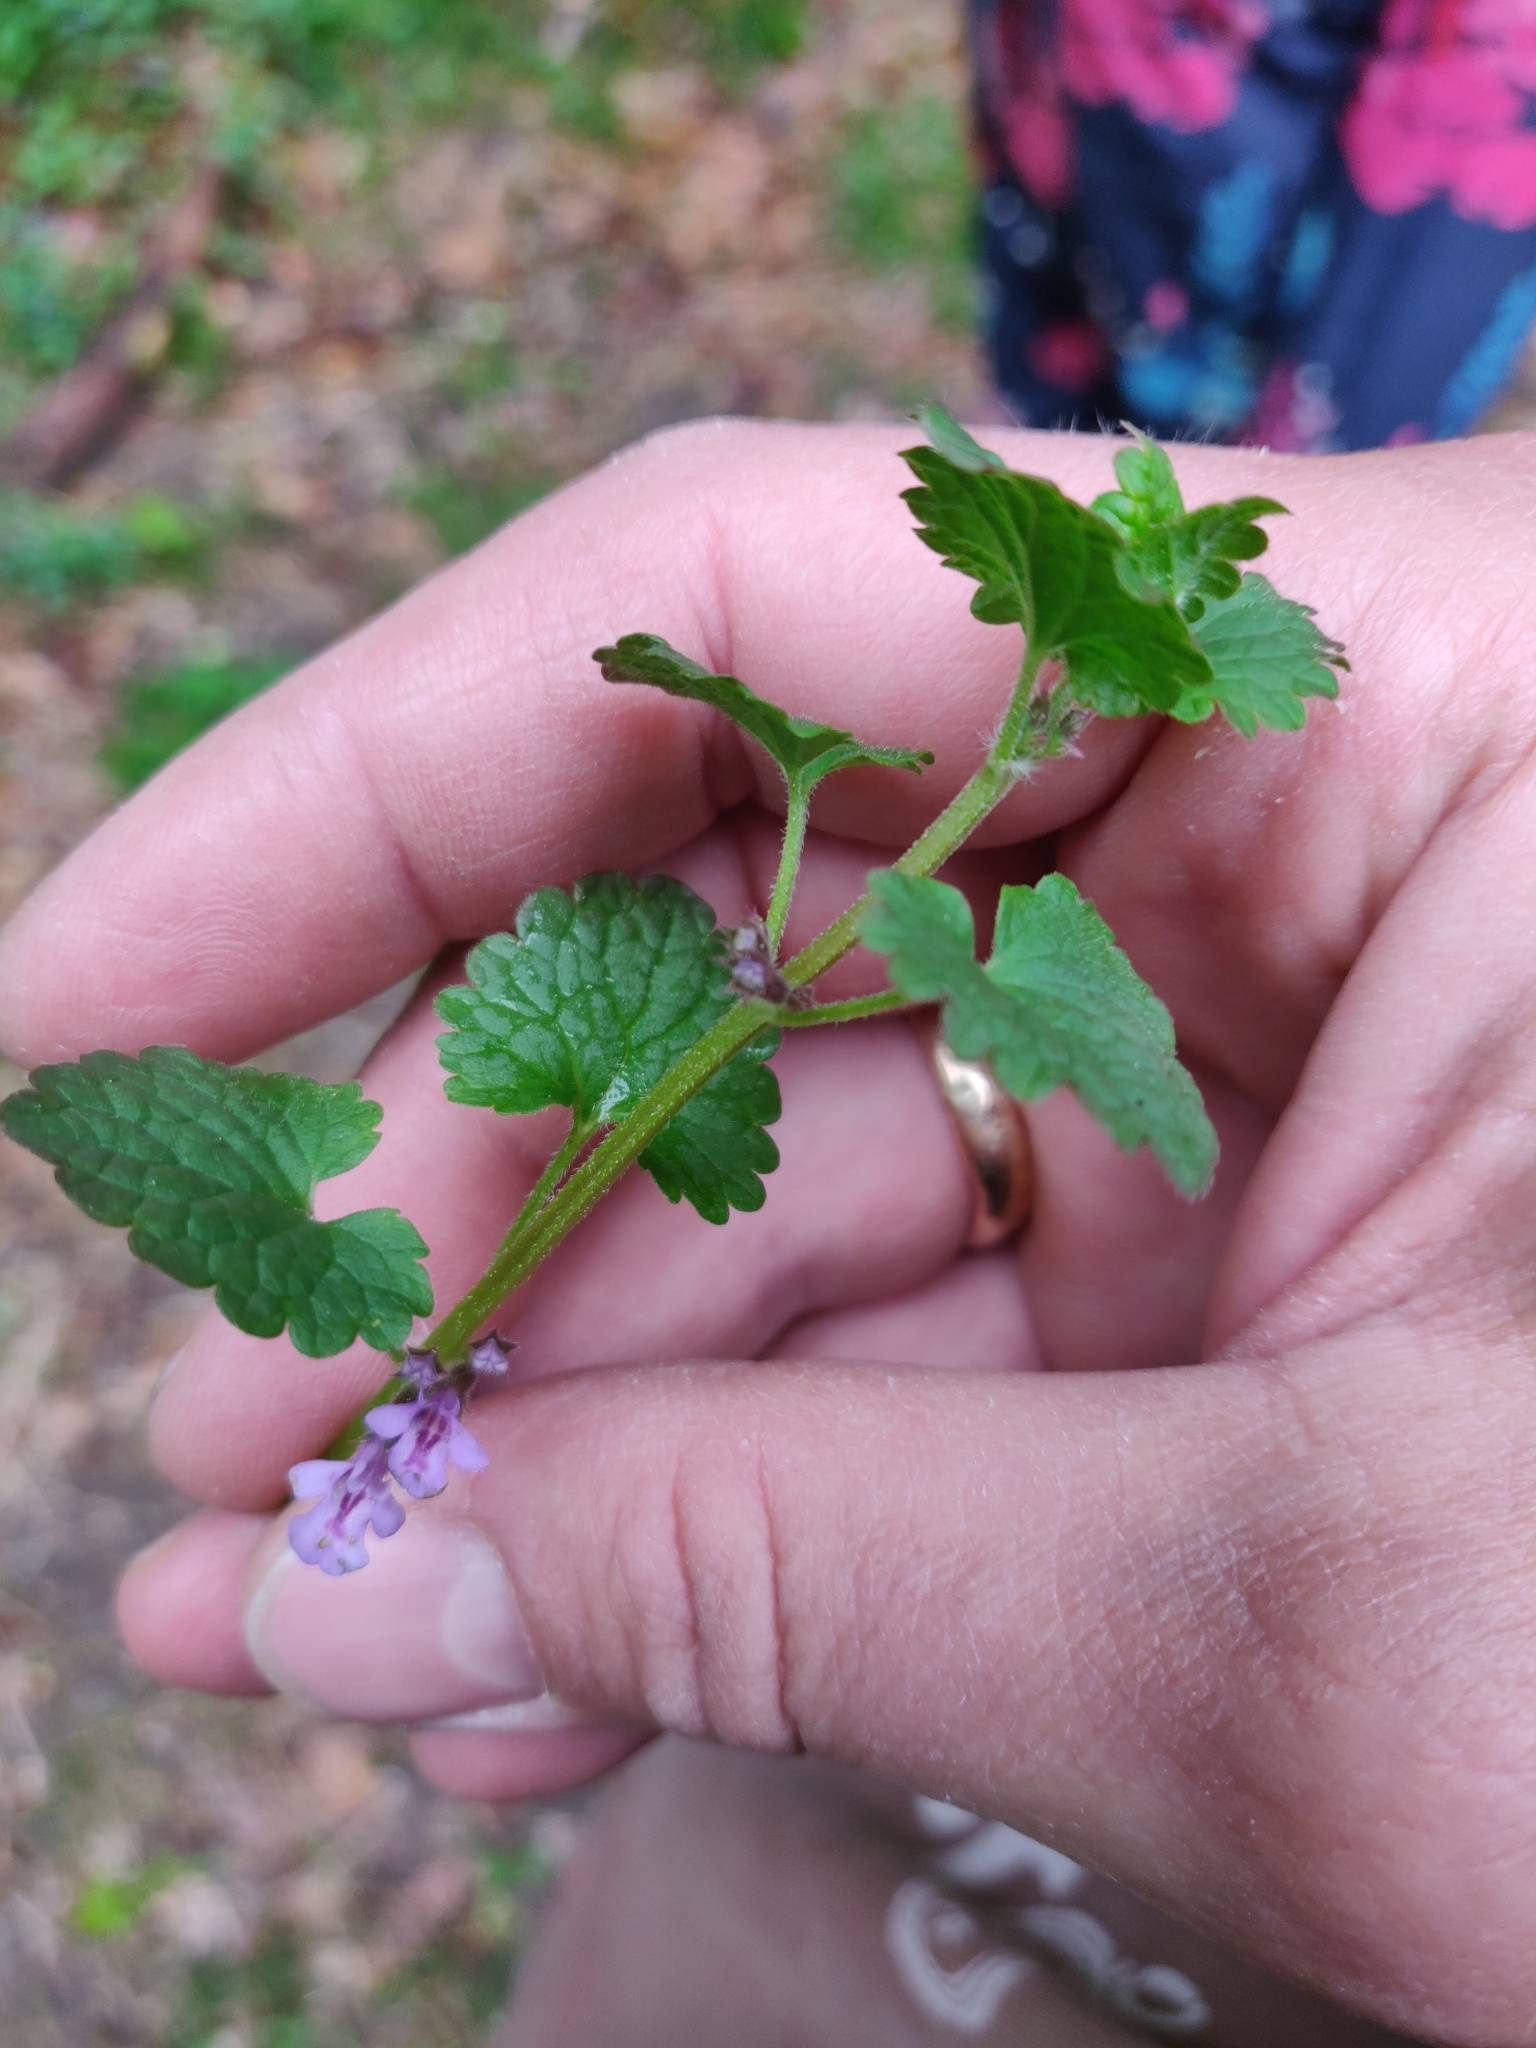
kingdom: Plantae
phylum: Tracheophyta
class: Magnoliopsida
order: Lamiales
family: Lamiaceae
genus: Glechoma
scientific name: Glechoma hederacea
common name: Ground ivy
